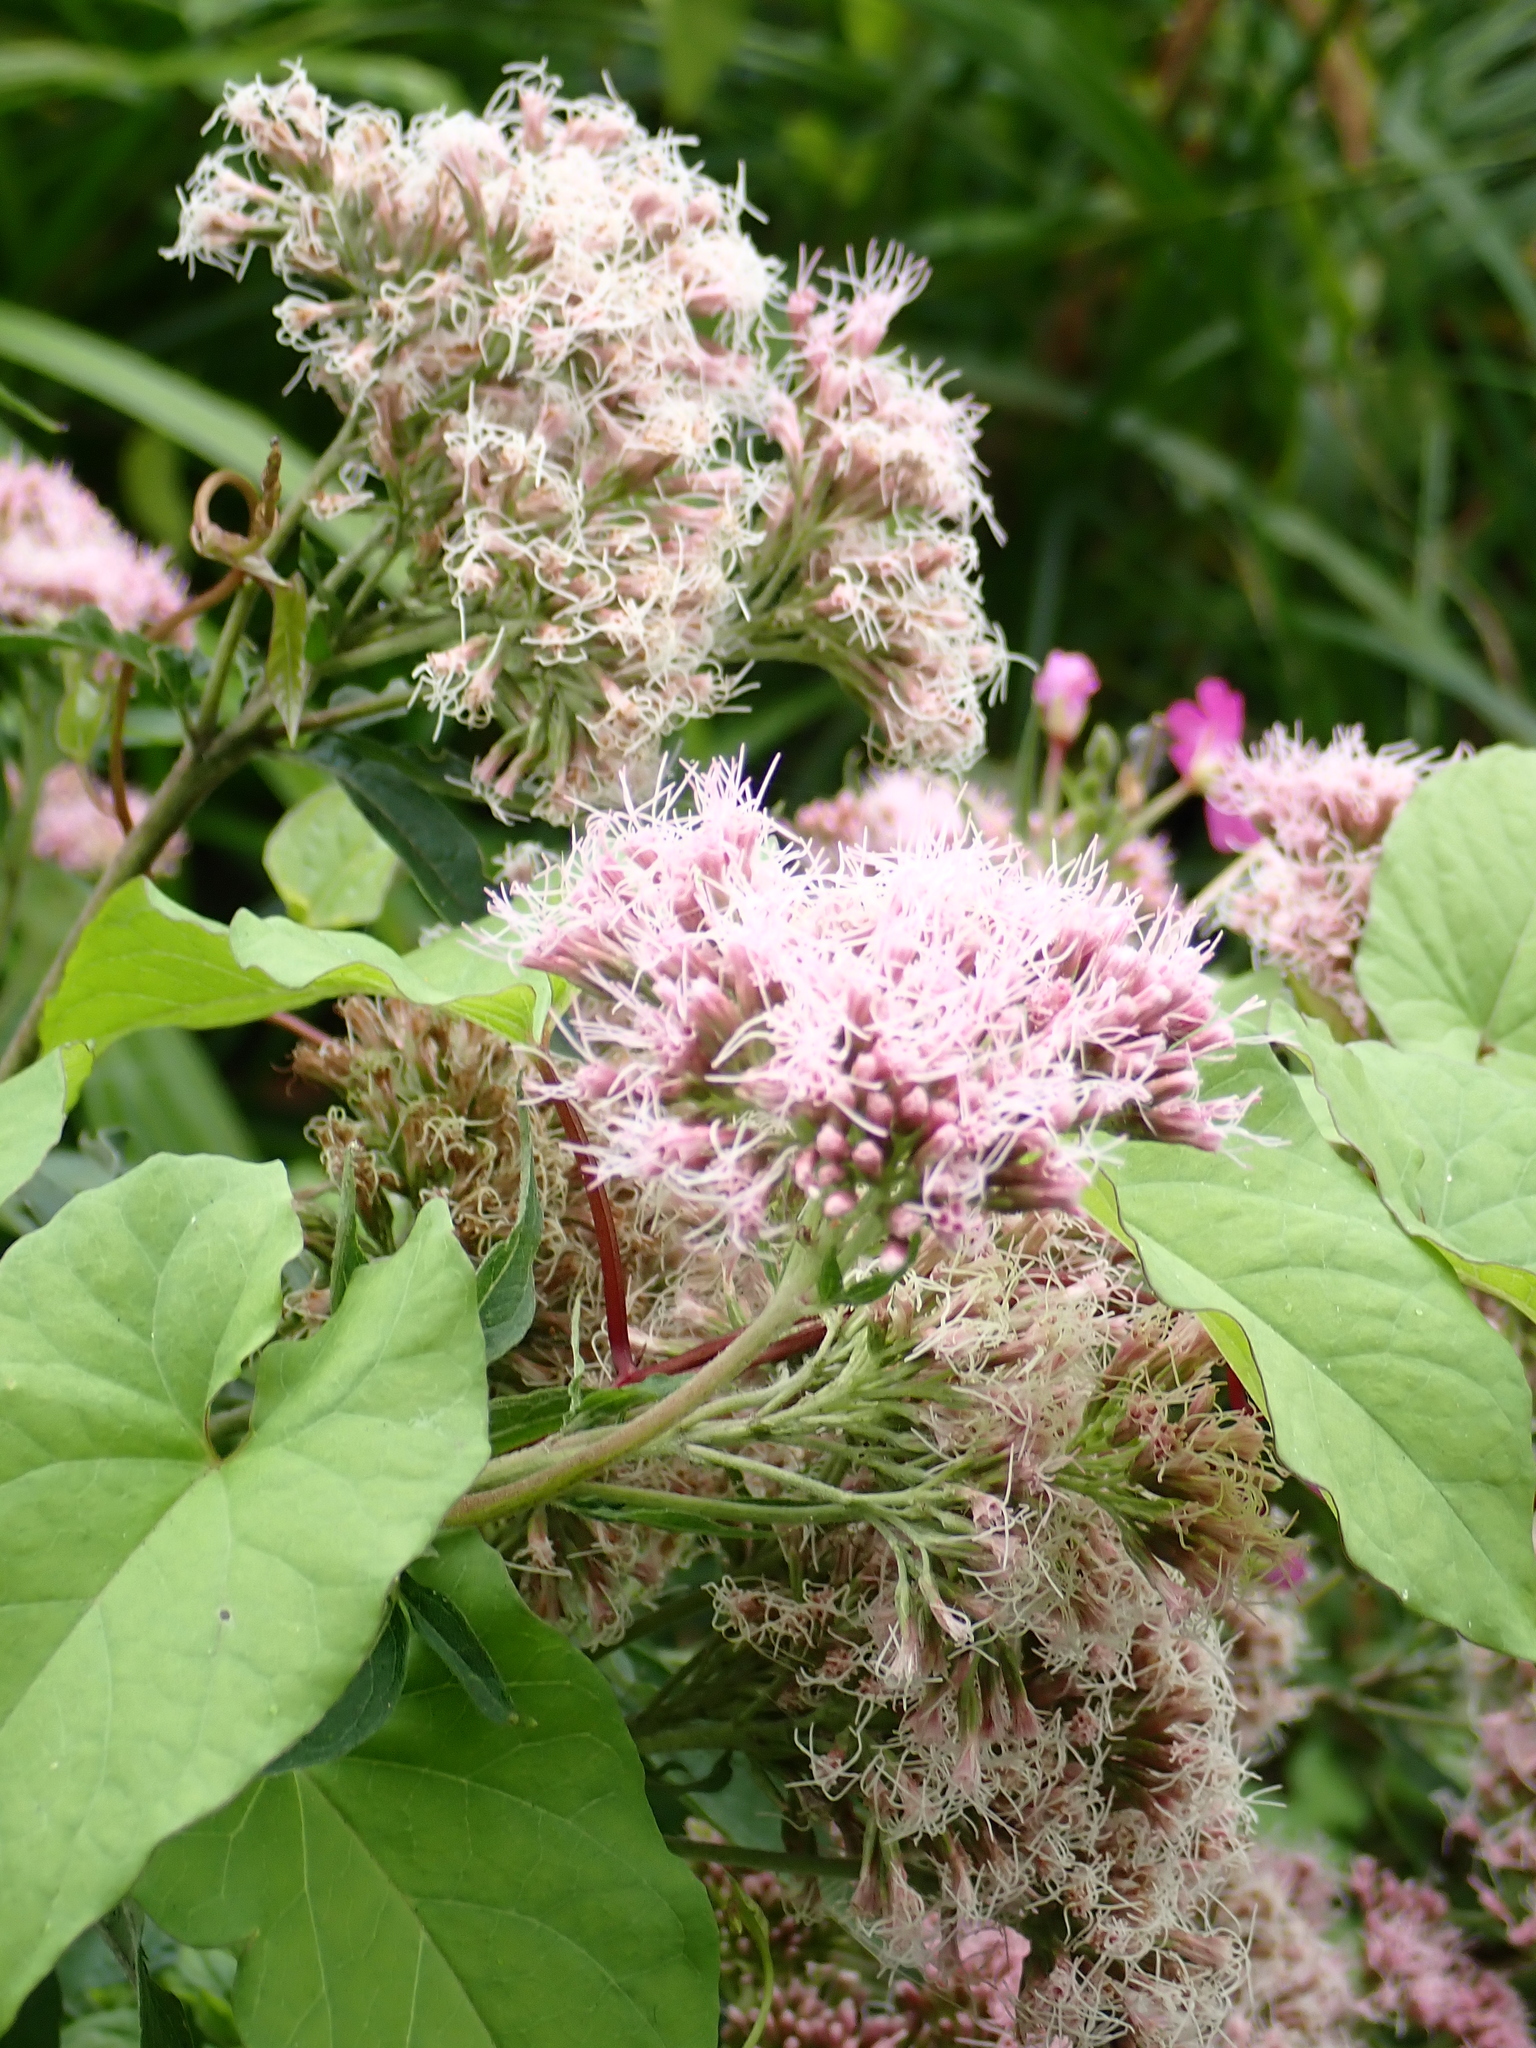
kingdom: Plantae
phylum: Tracheophyta
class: Magnoliopsida
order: Asterales
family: Asteraceae
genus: Eupatorium
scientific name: Eupatorium cannabinum
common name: Hemp-agrimony
